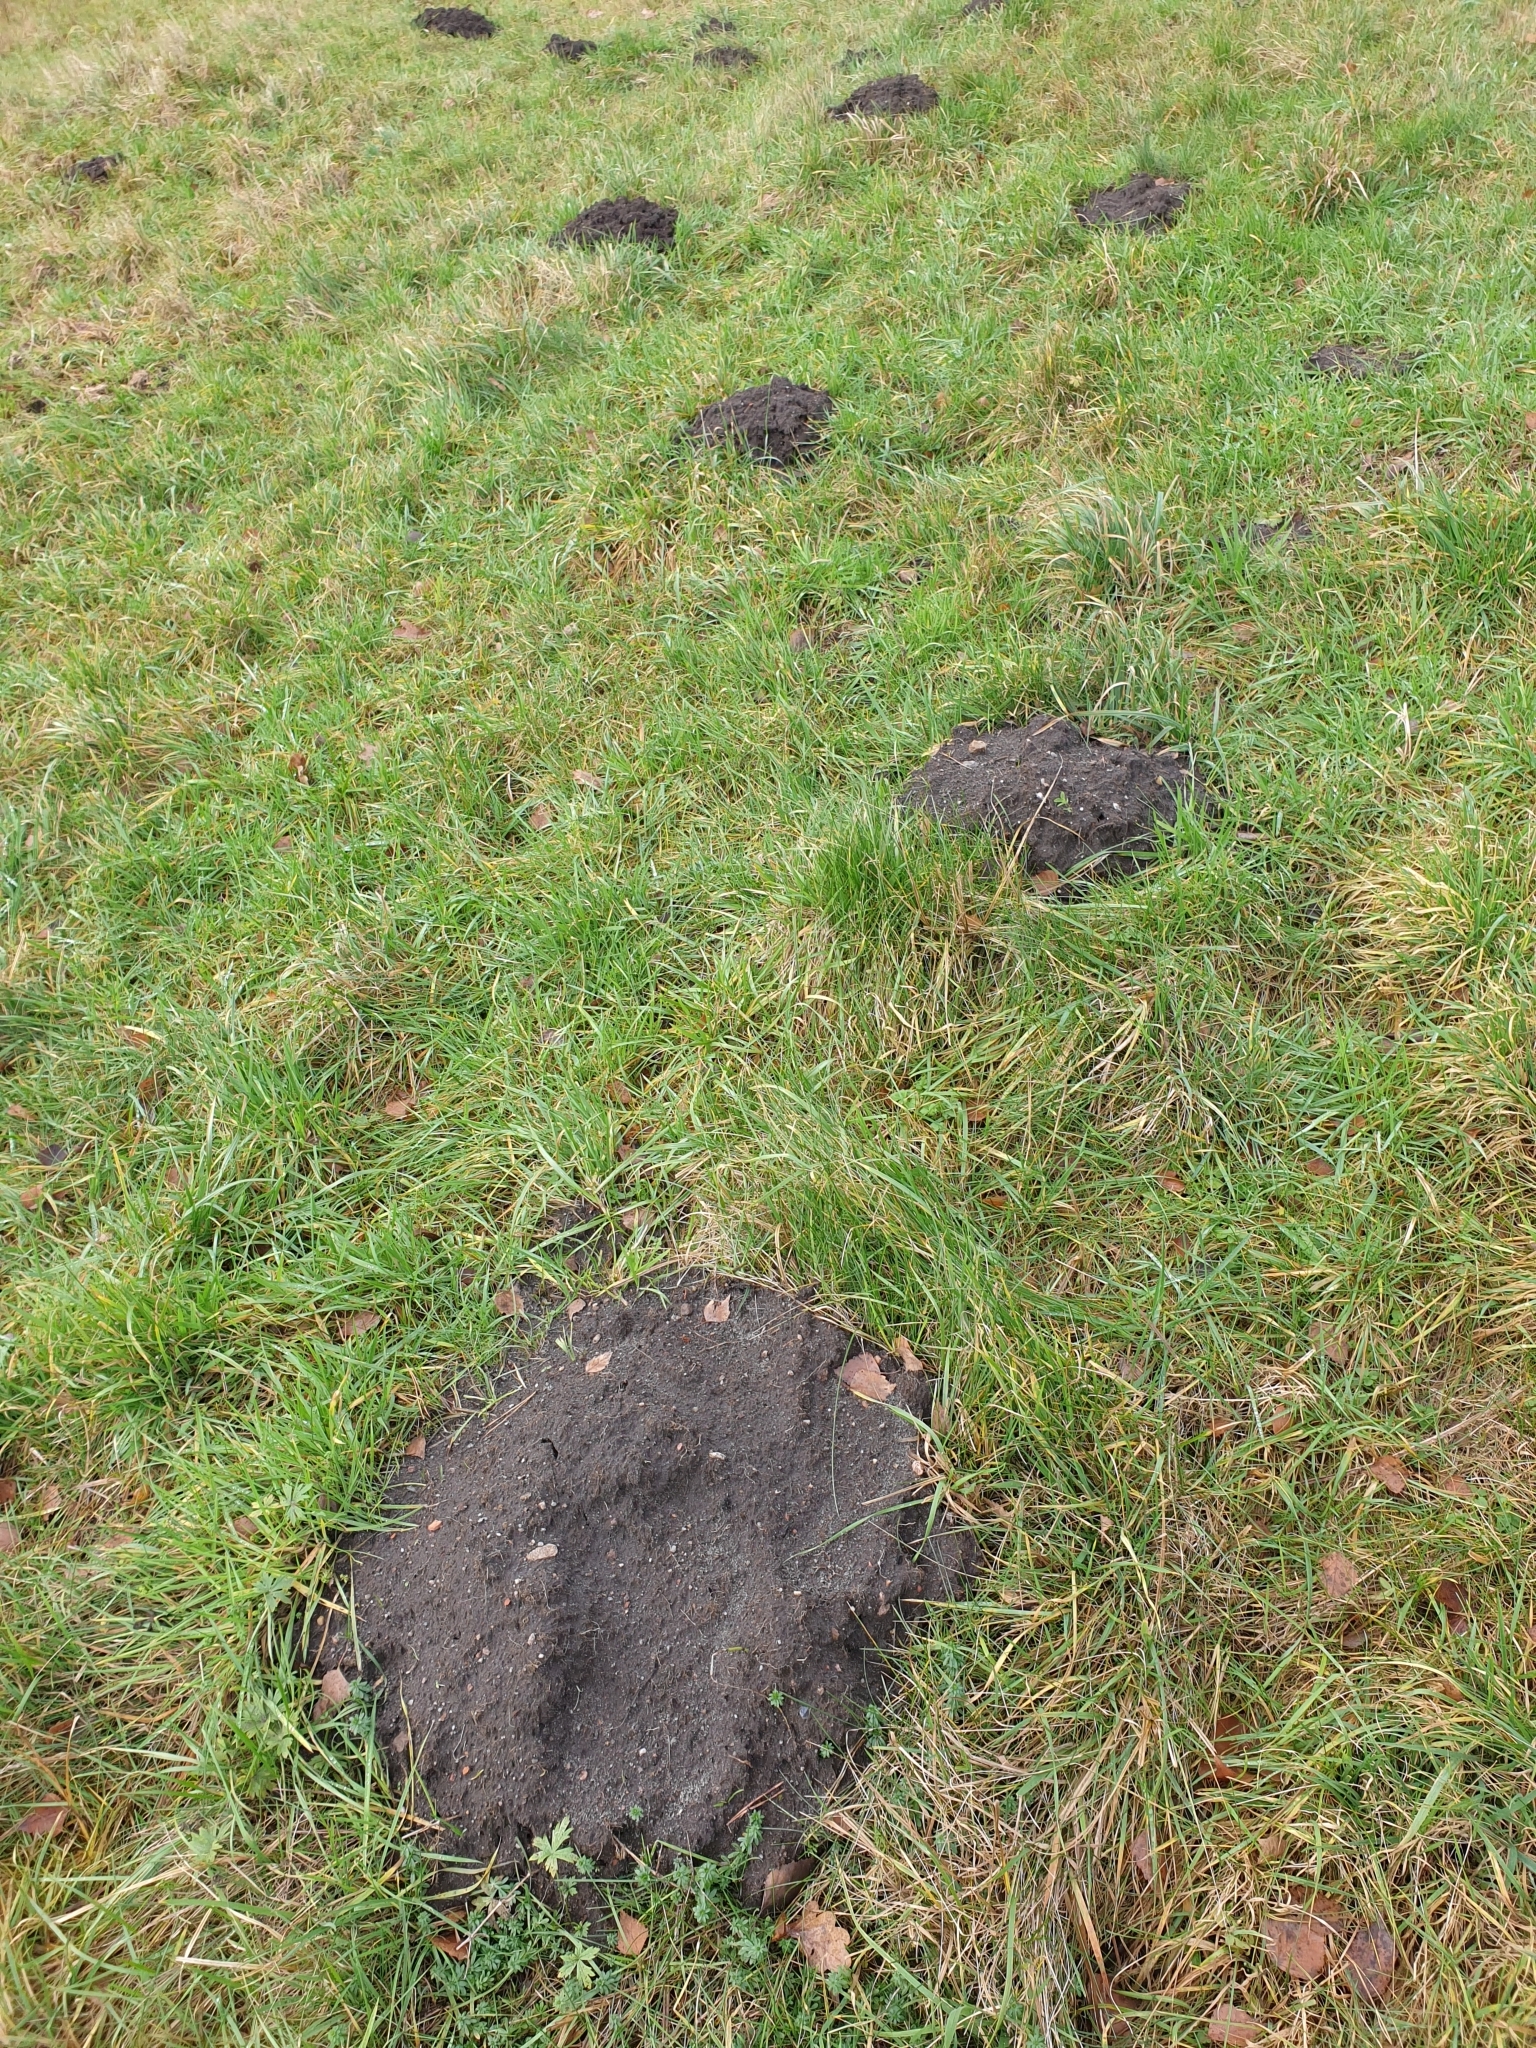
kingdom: Animalia
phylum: Chordata
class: Mammalia
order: Soricomorpha
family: Talpidae
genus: Talpa
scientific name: Talpa europaea
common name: European mole
